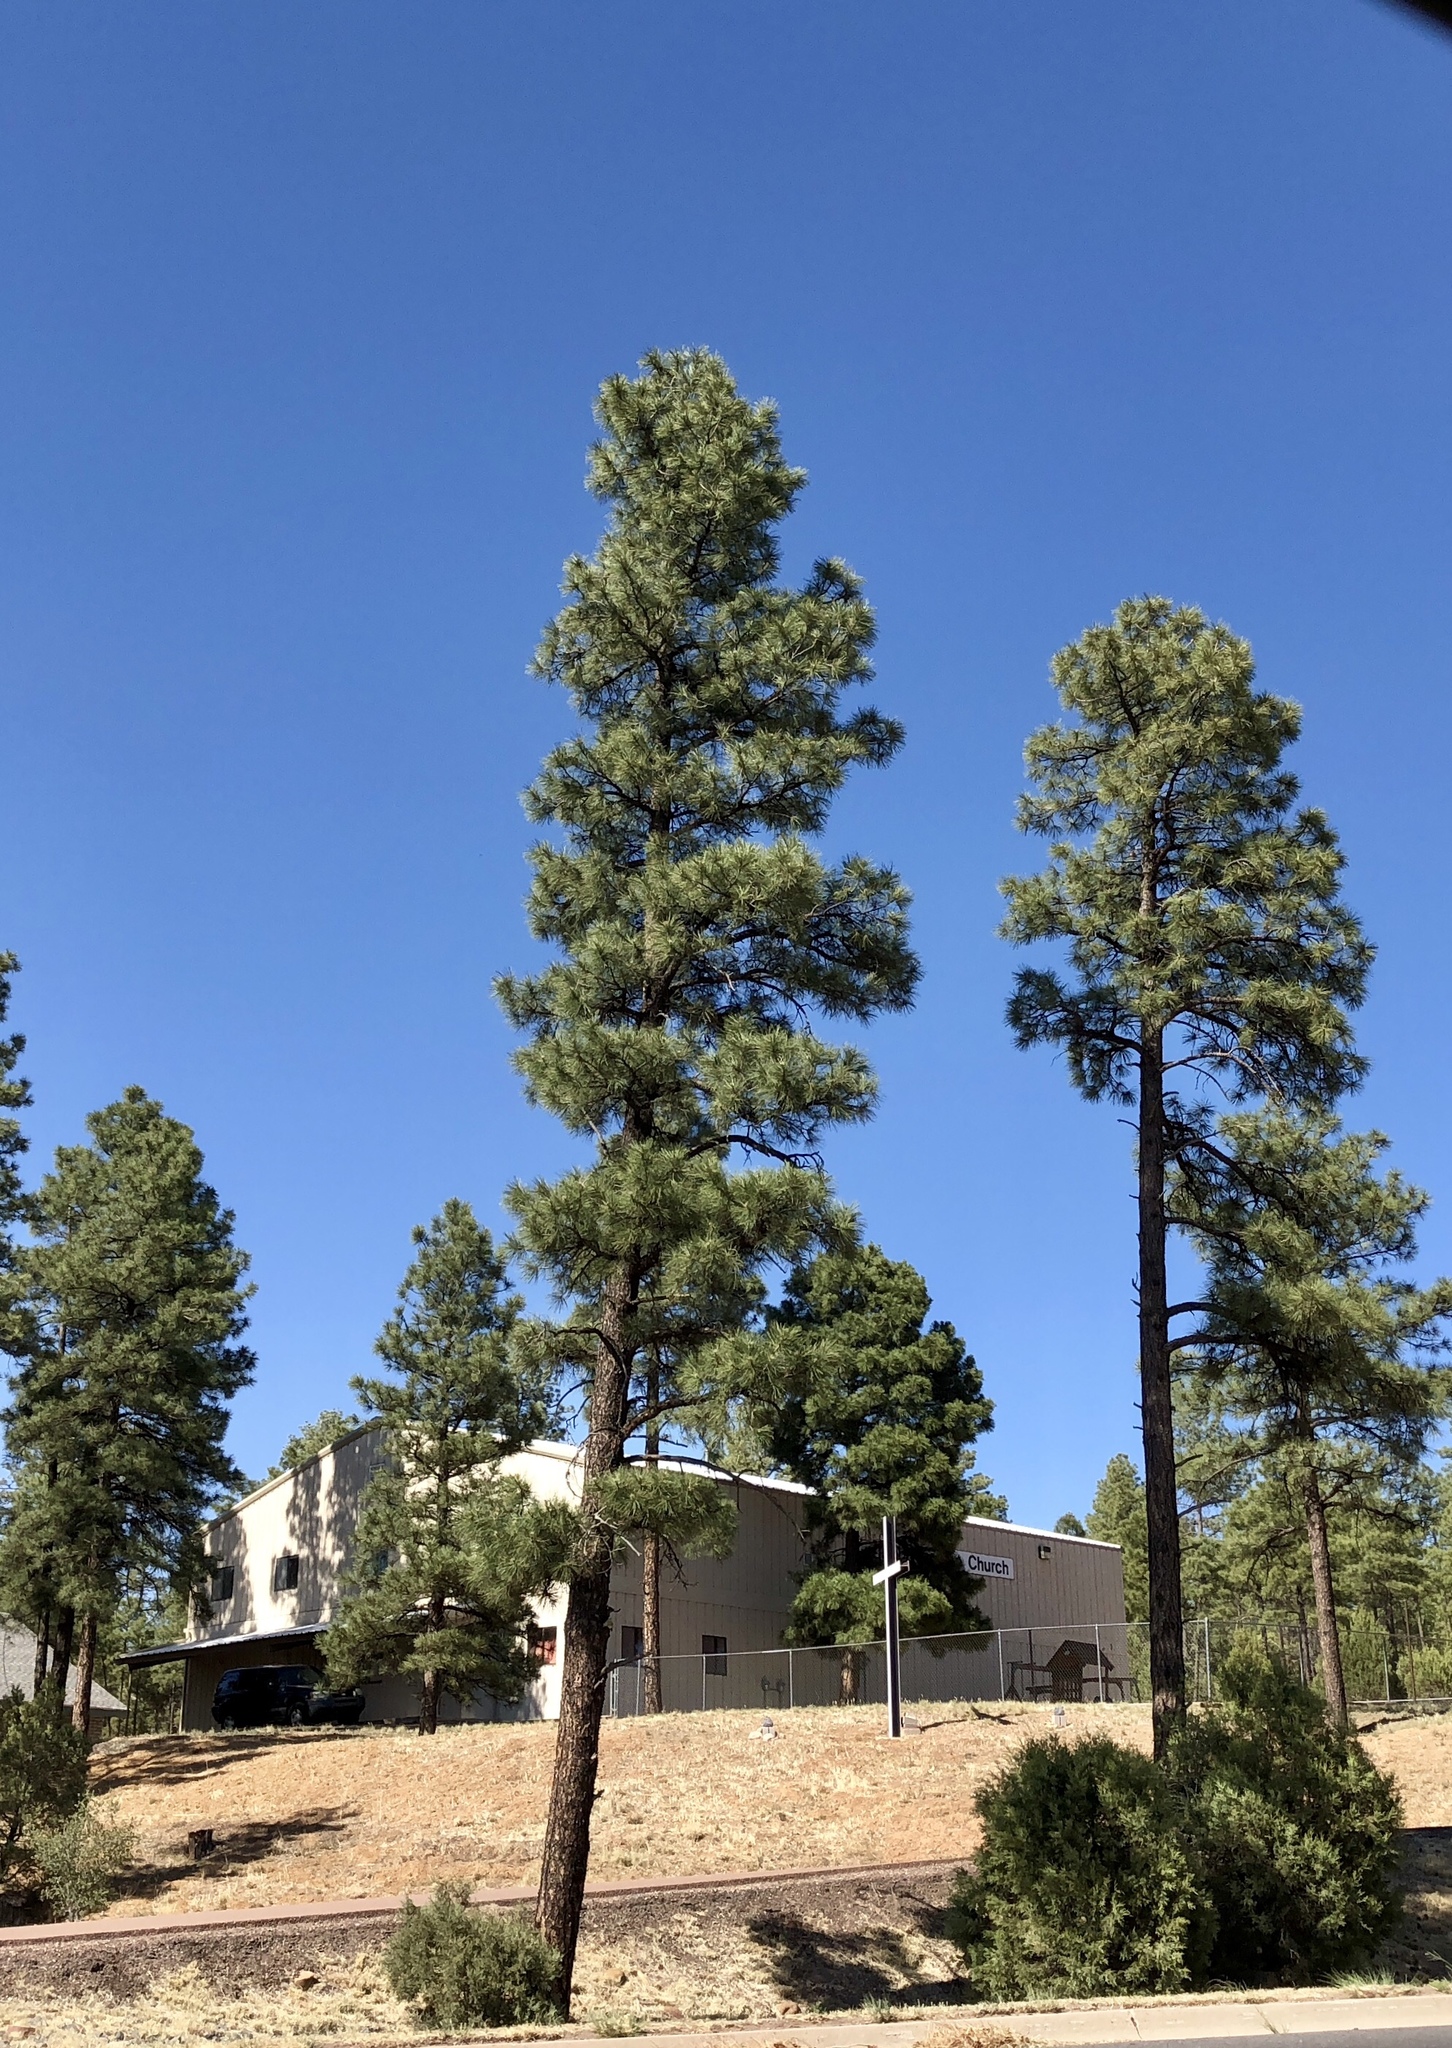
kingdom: Plantae
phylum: Tracheophyta
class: Pinopsida
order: Pinales
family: Pinaceae
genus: Pinus
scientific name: Pinus ponderosa
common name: Western yellow-pine
